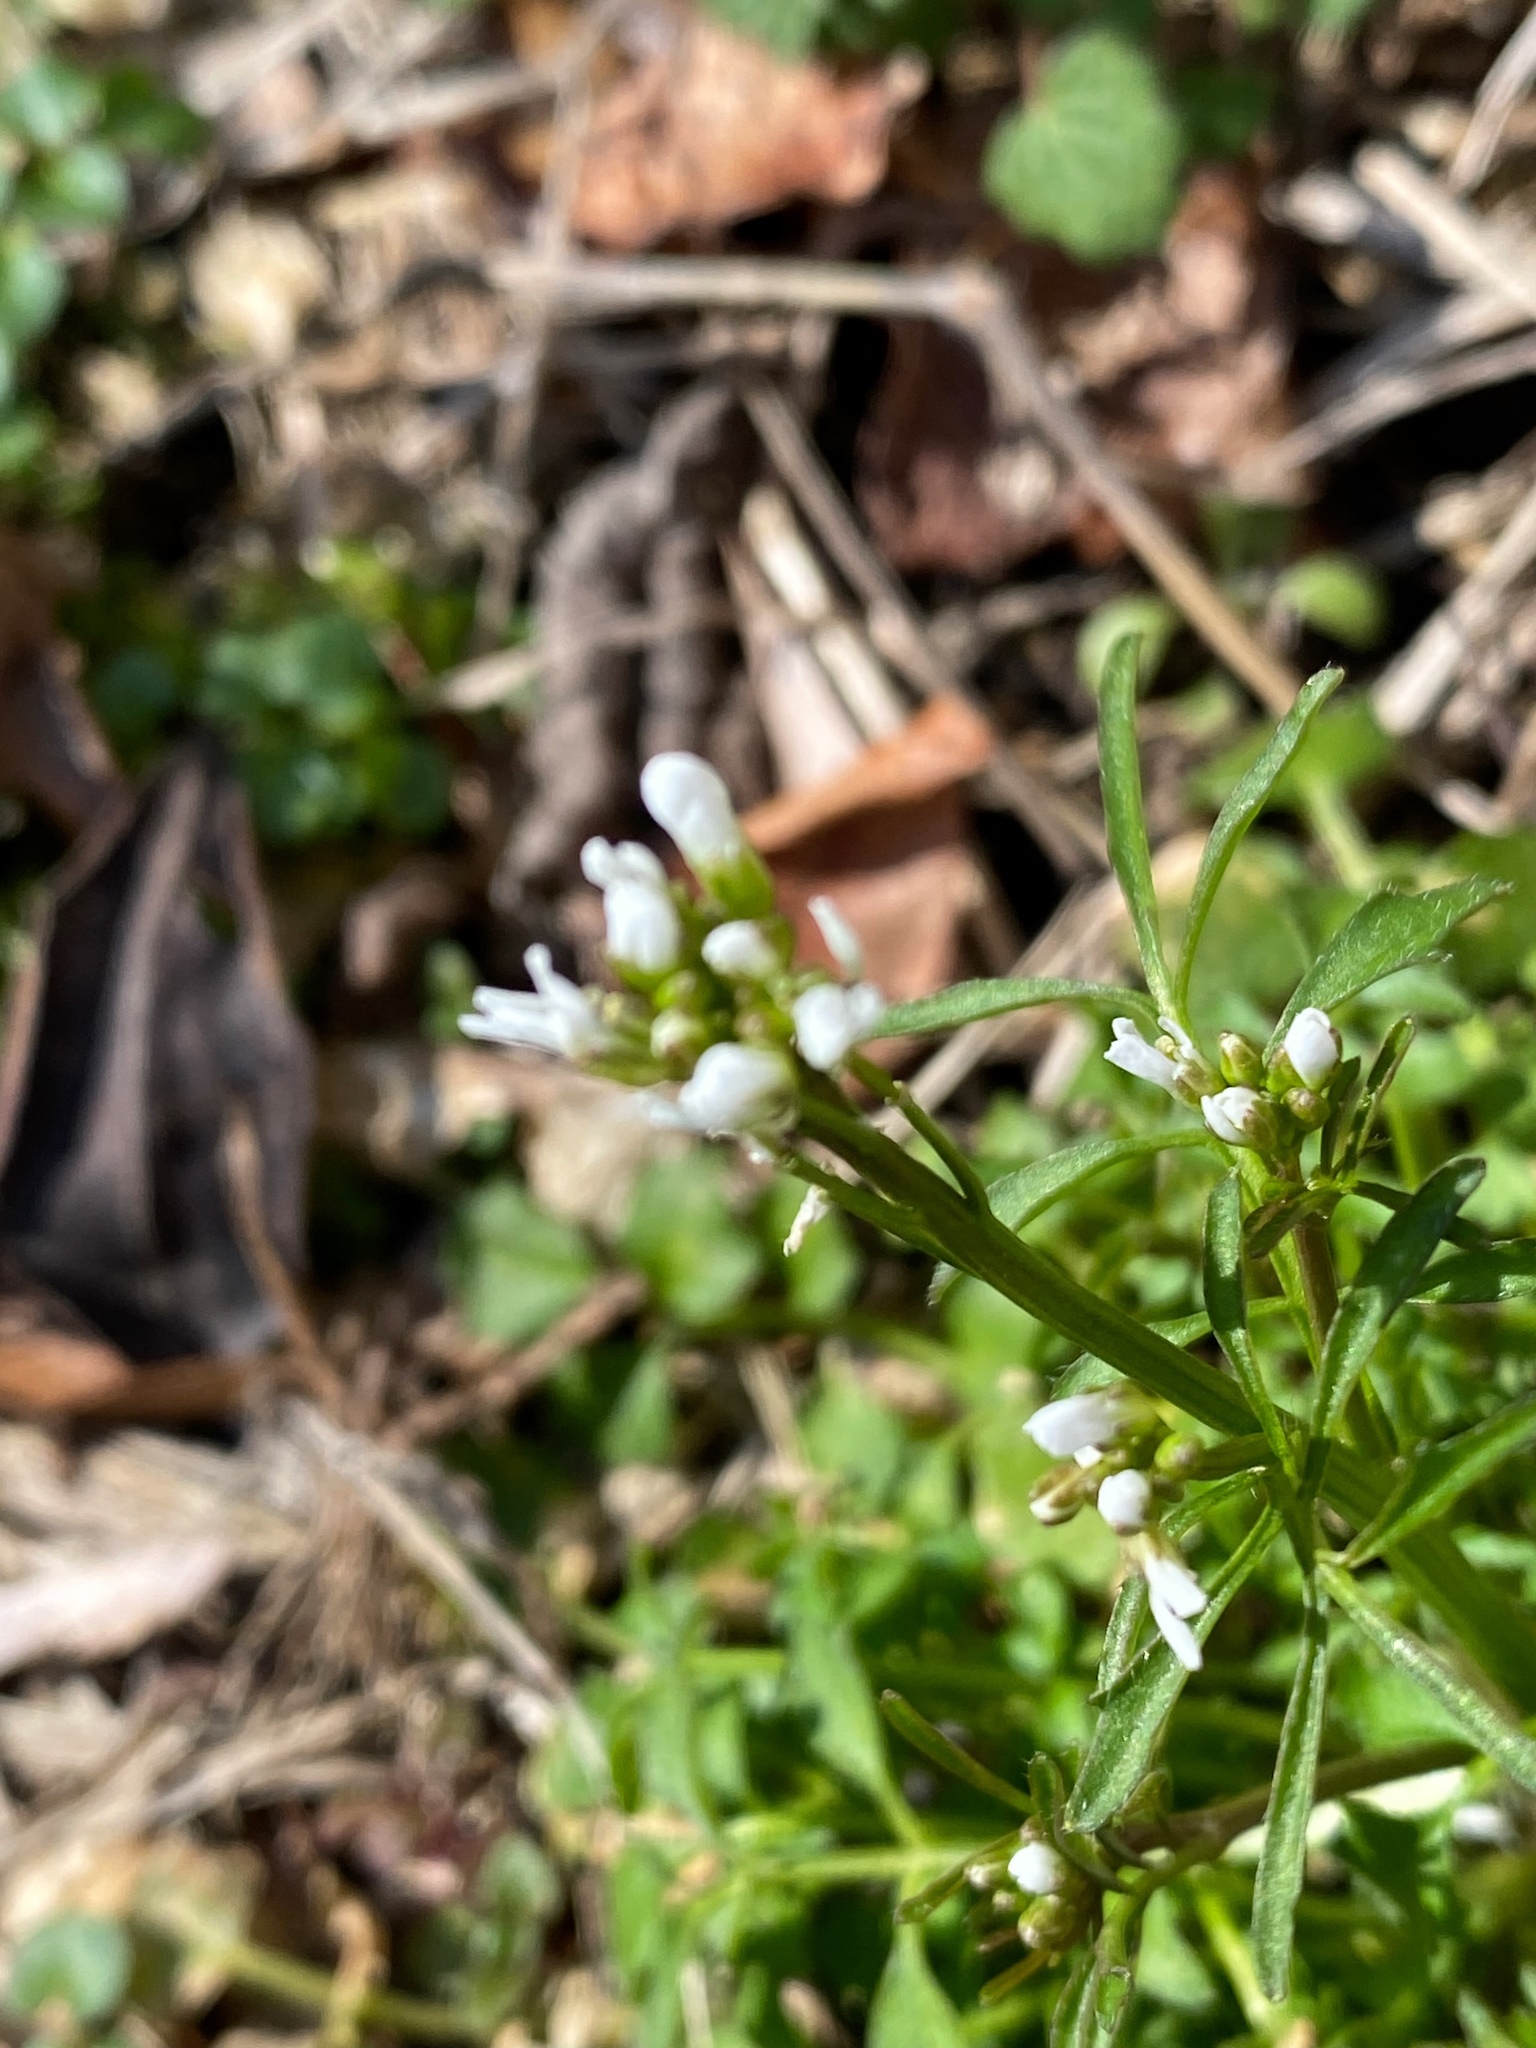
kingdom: Plantae
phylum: Tracheophyta
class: Magnoliopsida
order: Brassicales
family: Brassicaceae
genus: Cardamine
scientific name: Cardamine hirsuta
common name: Hairy bittercress
